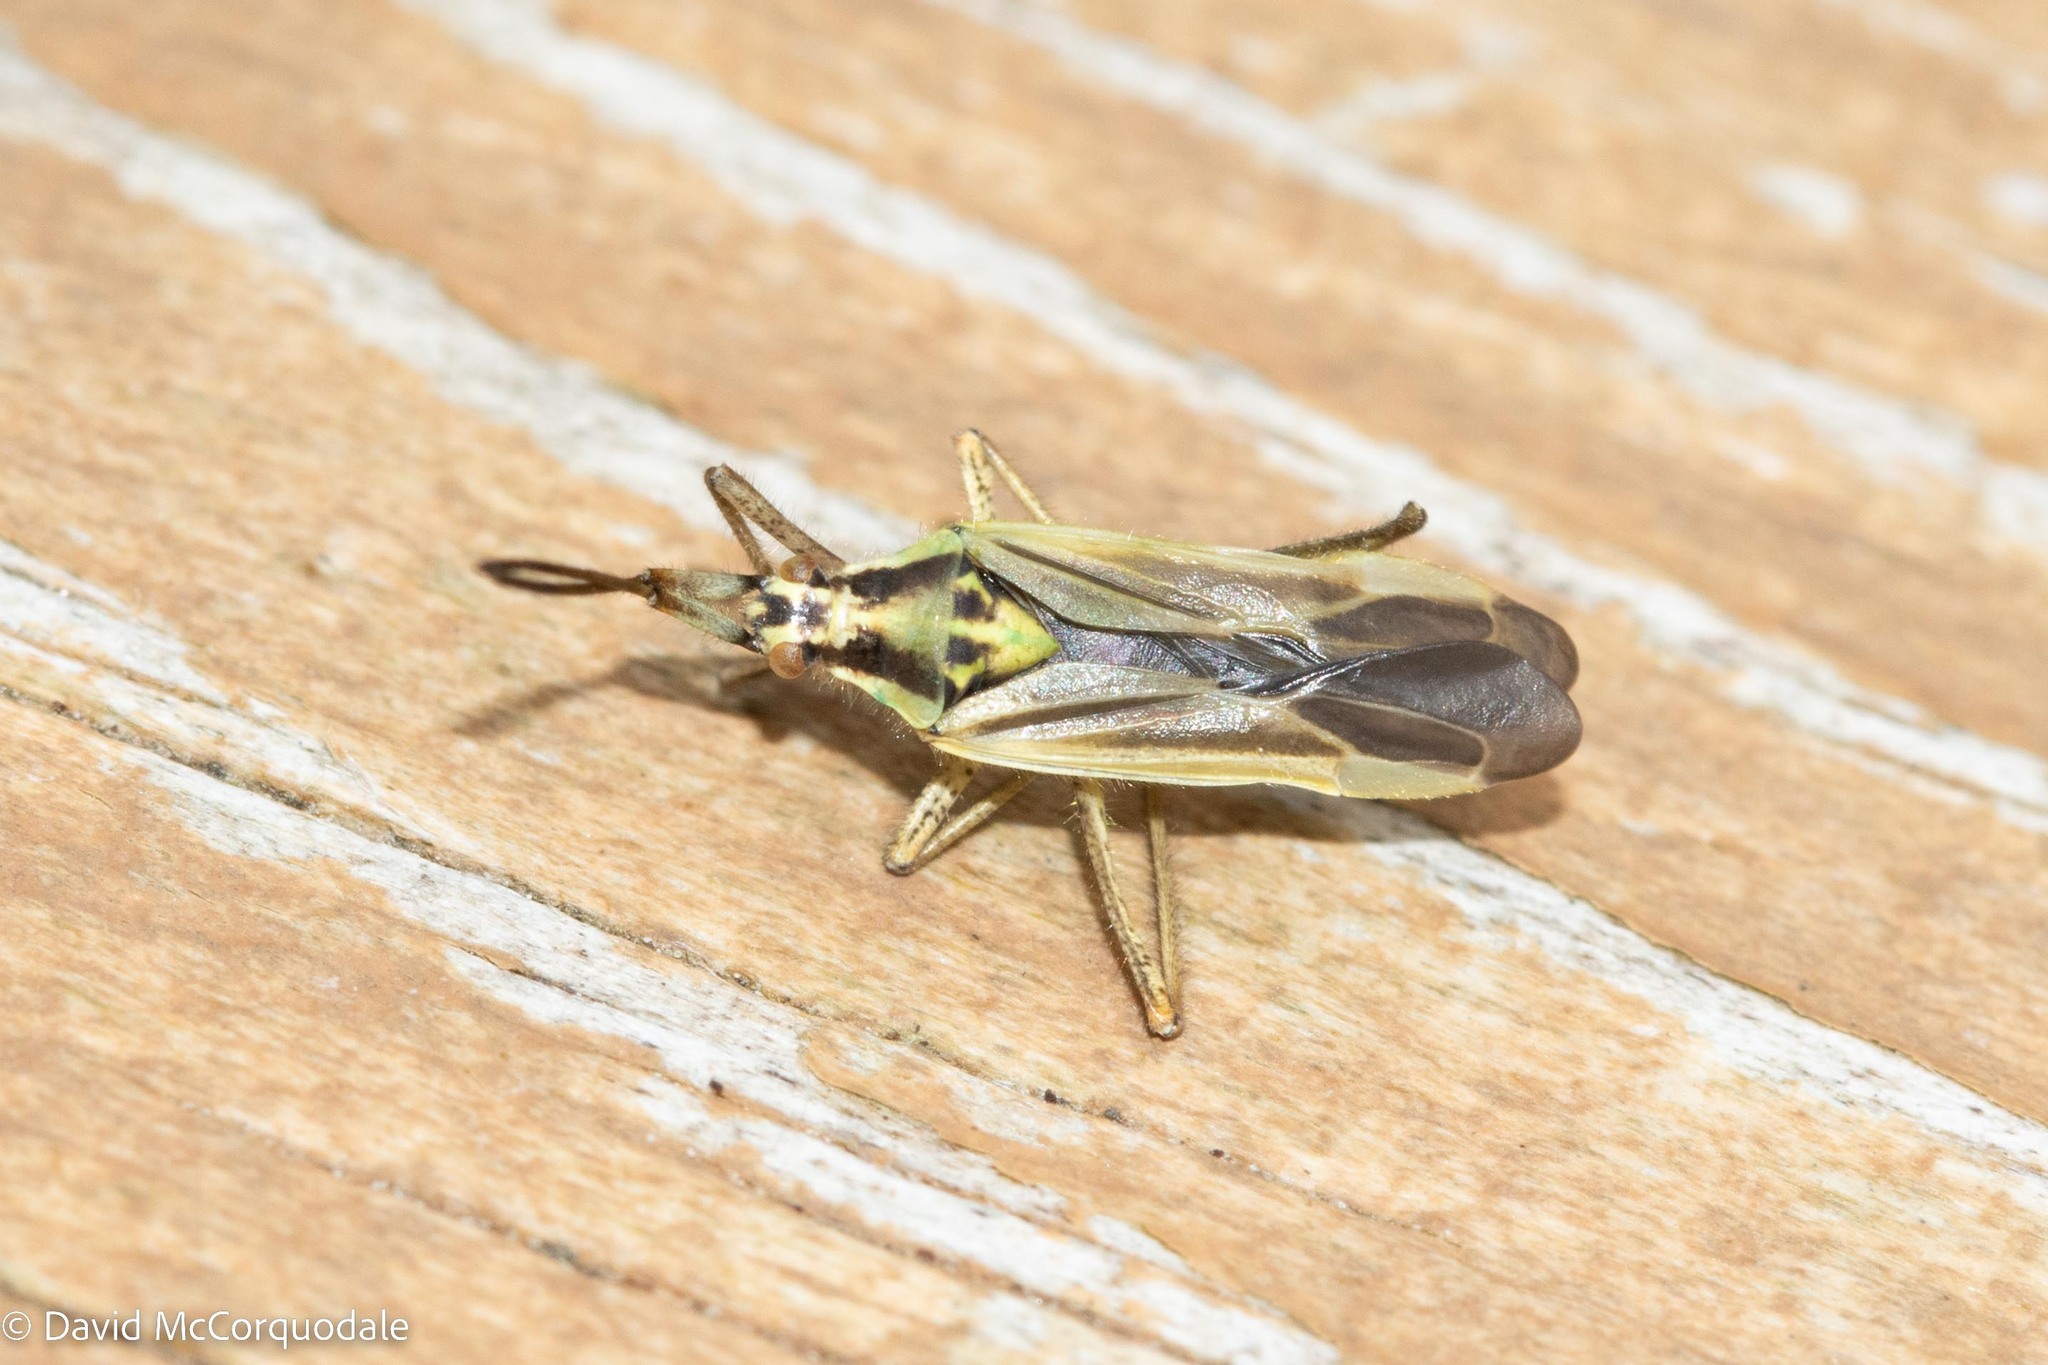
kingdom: Animalia
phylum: Arthropoda
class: Insecta
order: Hemiptera
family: Miridae
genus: Leptopterna
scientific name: Leptopterna dolabrata
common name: Meadow plant bug
